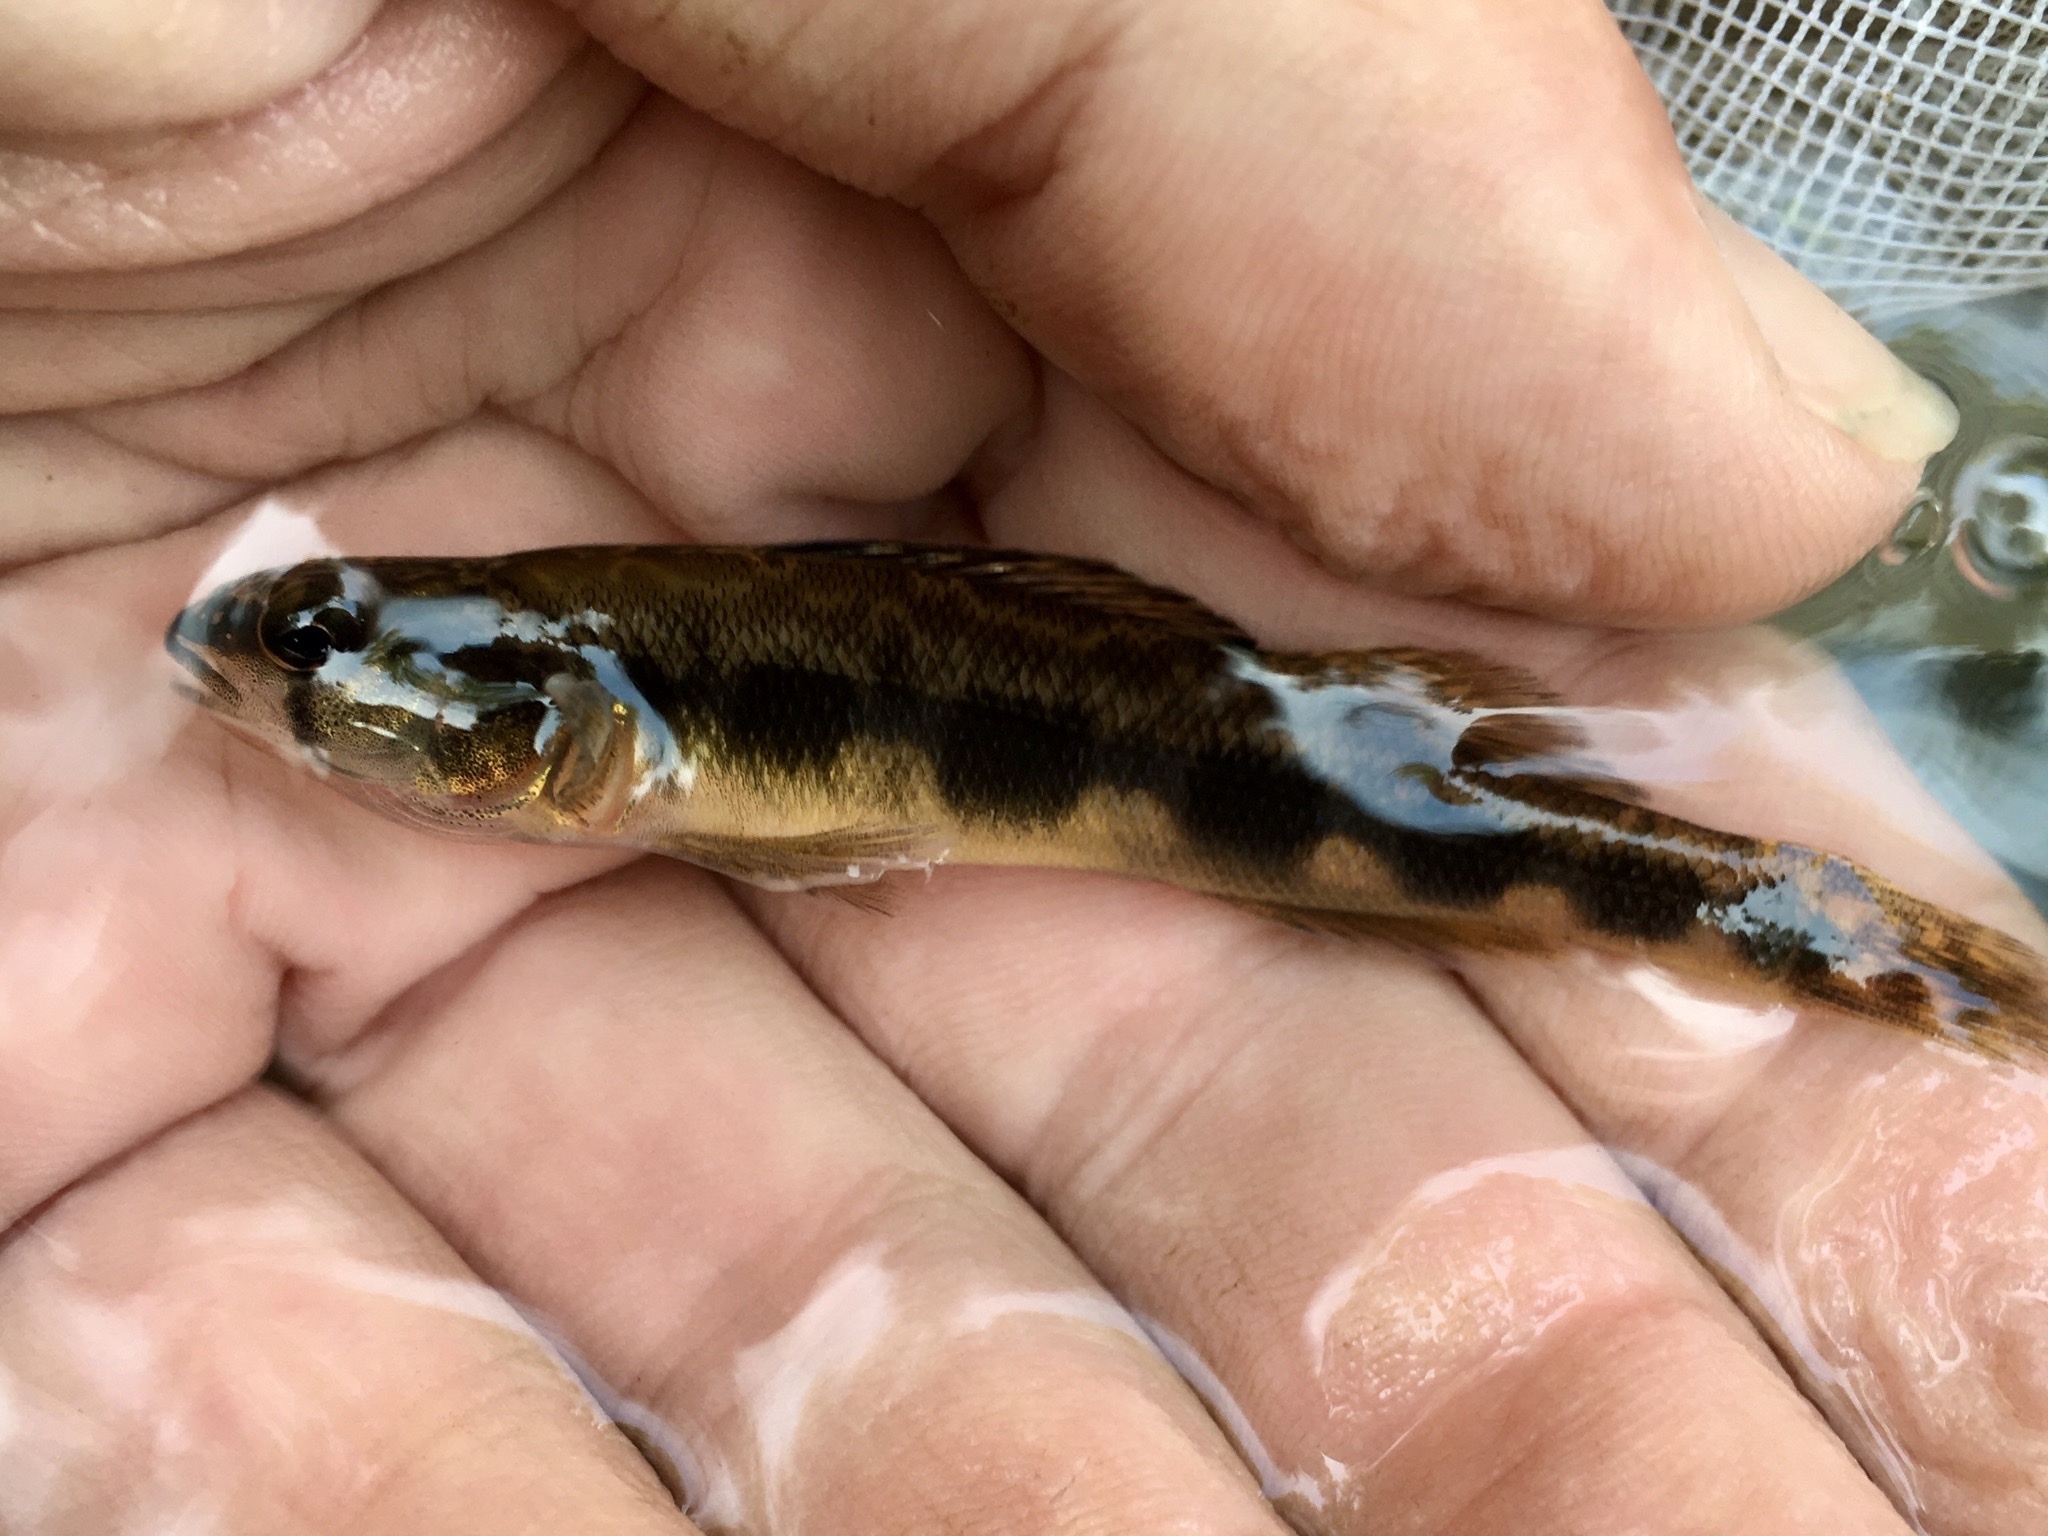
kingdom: Animalia
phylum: Chordata
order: Perciformes
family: Percidae
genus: Percina
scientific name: Percina maculata
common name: Blackside darter
